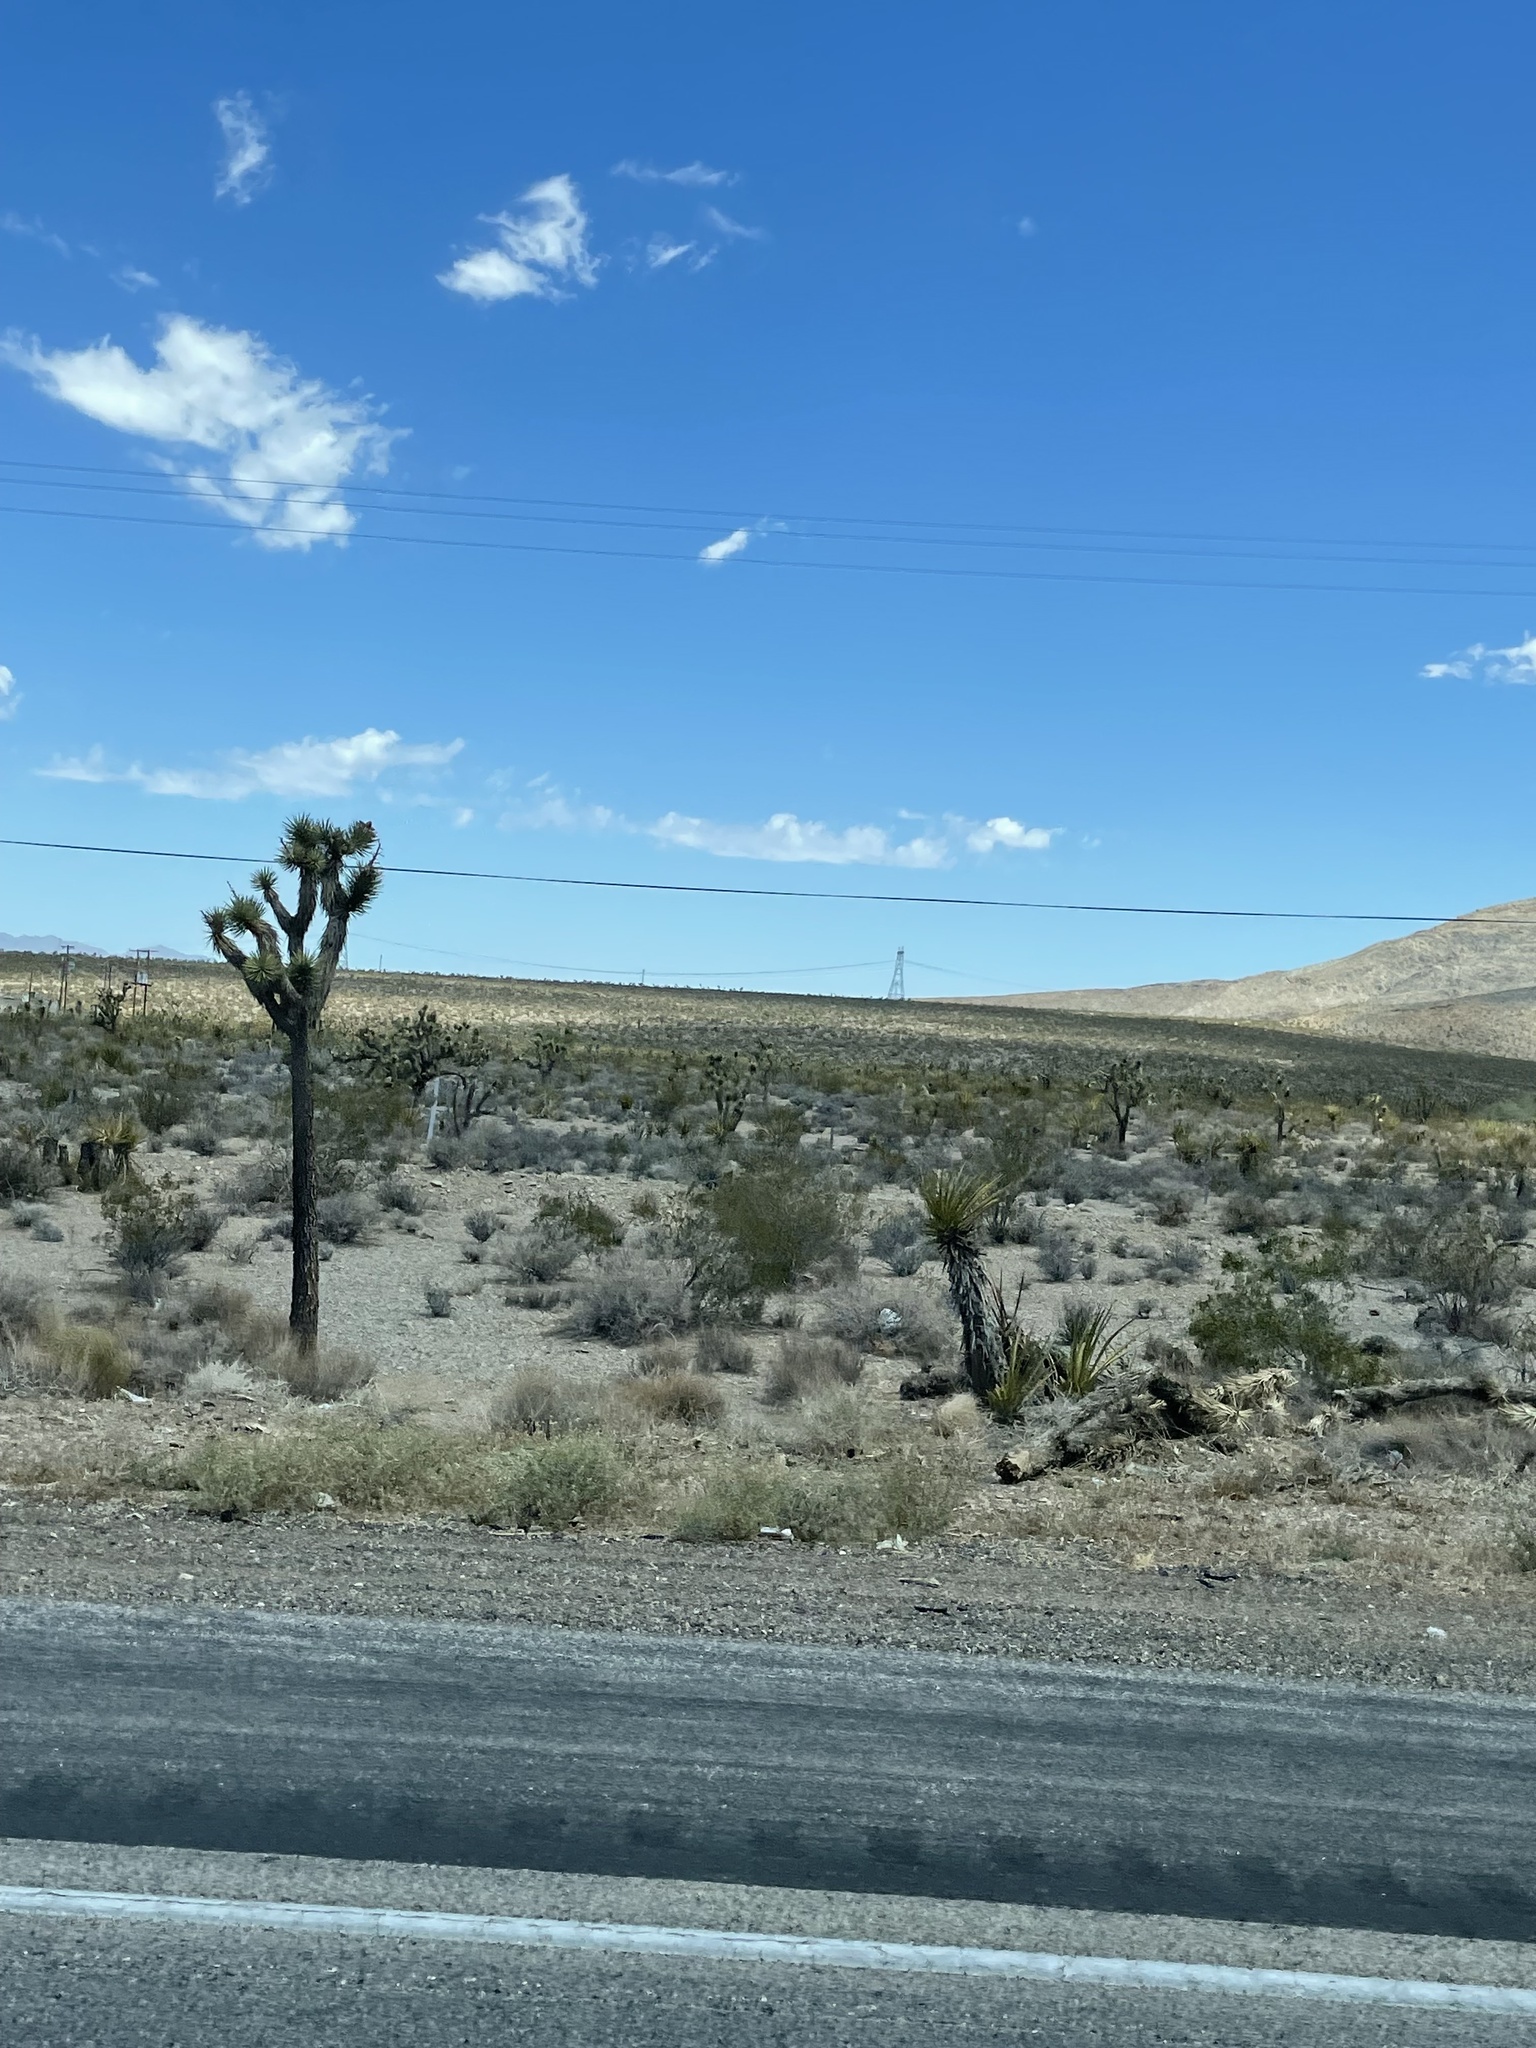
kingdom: Plantae
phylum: Tracheophyta
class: Liliopsida
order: Asparagales
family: Asparagaceae
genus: Yucca
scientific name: Yucca schidigera
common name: Mojave yucca
